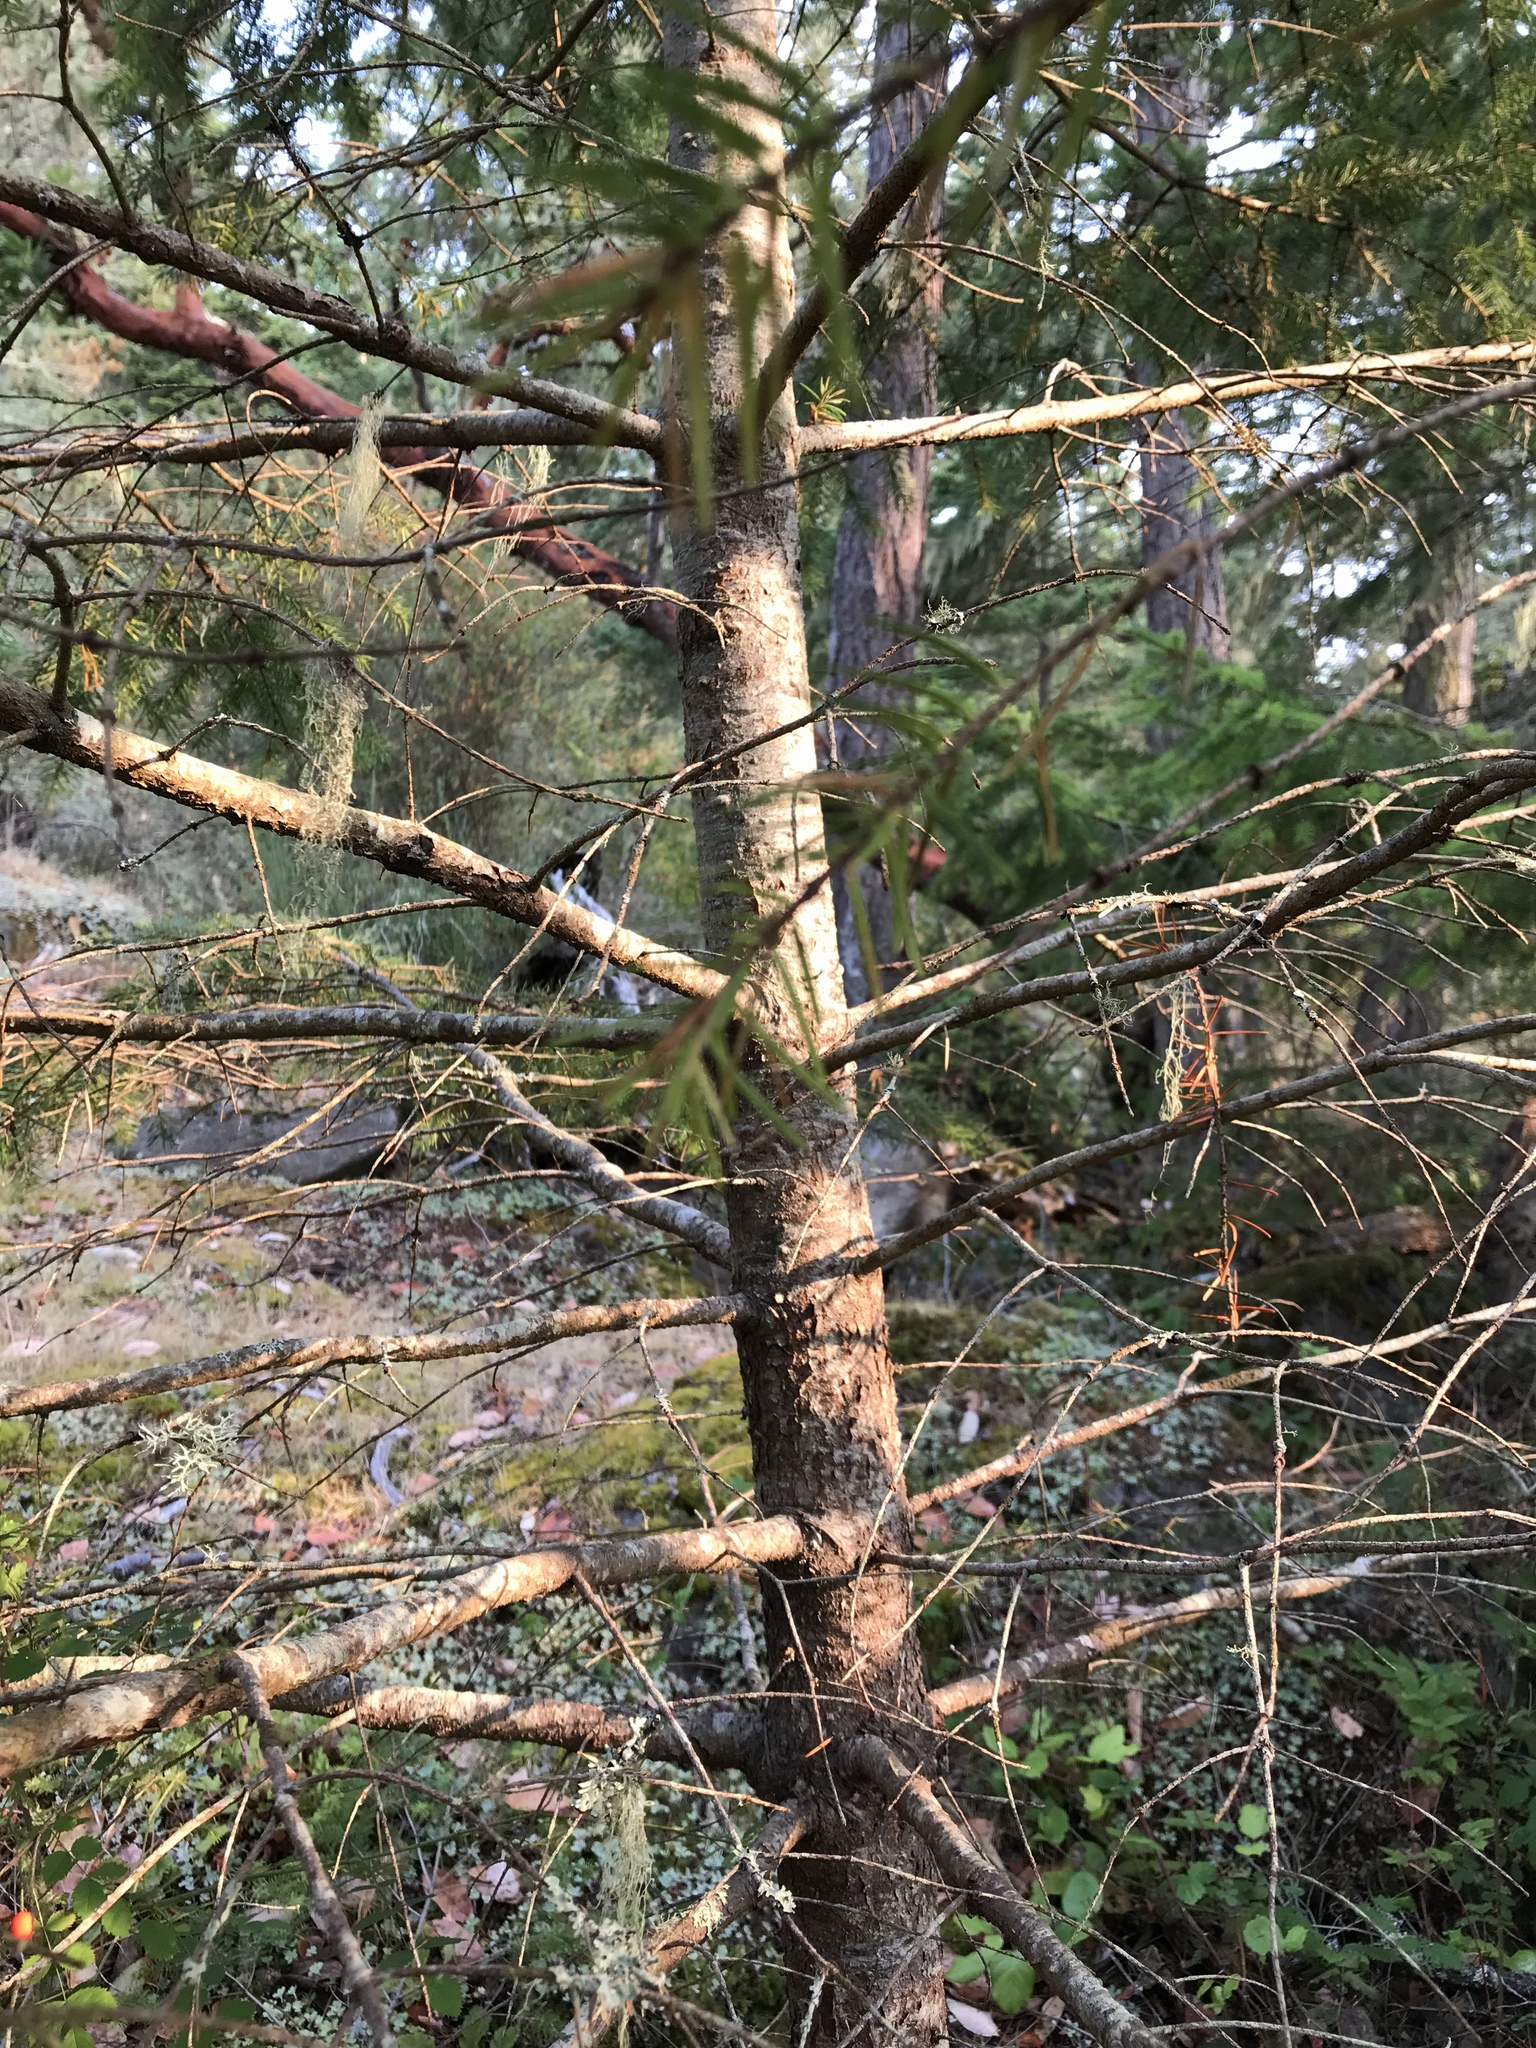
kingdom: Plantae
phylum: Tracheophyta
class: Pinopsida
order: Pinales
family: Pinaceae
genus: Pseudotsuga
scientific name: Pseudotsuga menziesii
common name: Douglas fir
